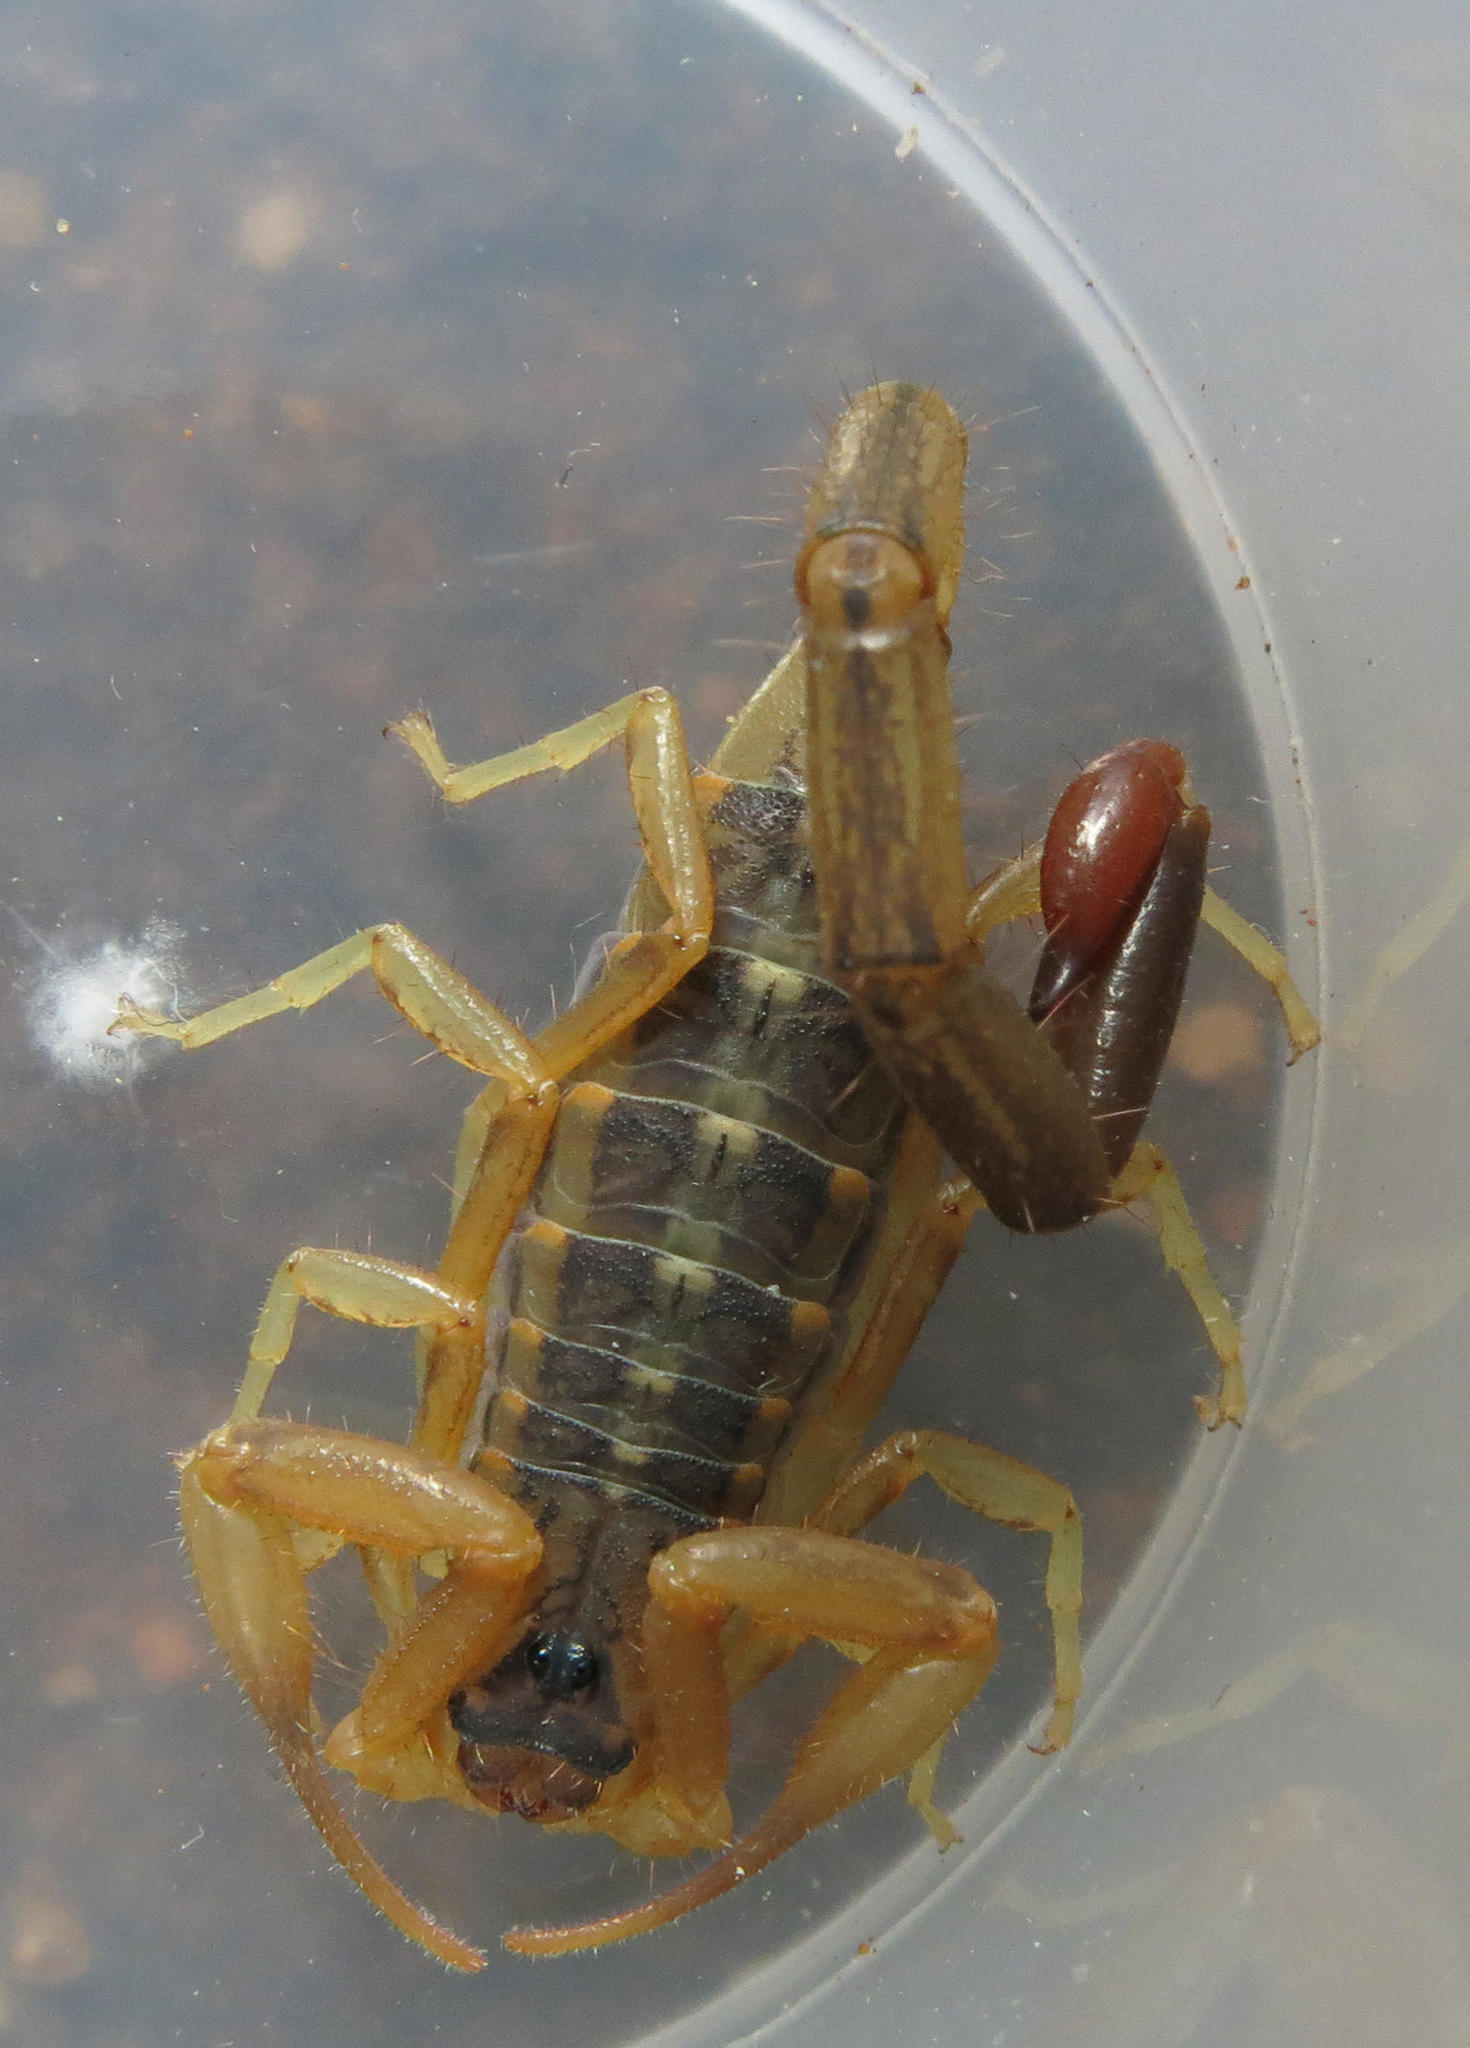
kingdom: Animalia
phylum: Arthropoda
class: Arachnida
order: Scorpiones
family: Buthidae
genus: Uroplectes
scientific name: Uroplectes vittatus
